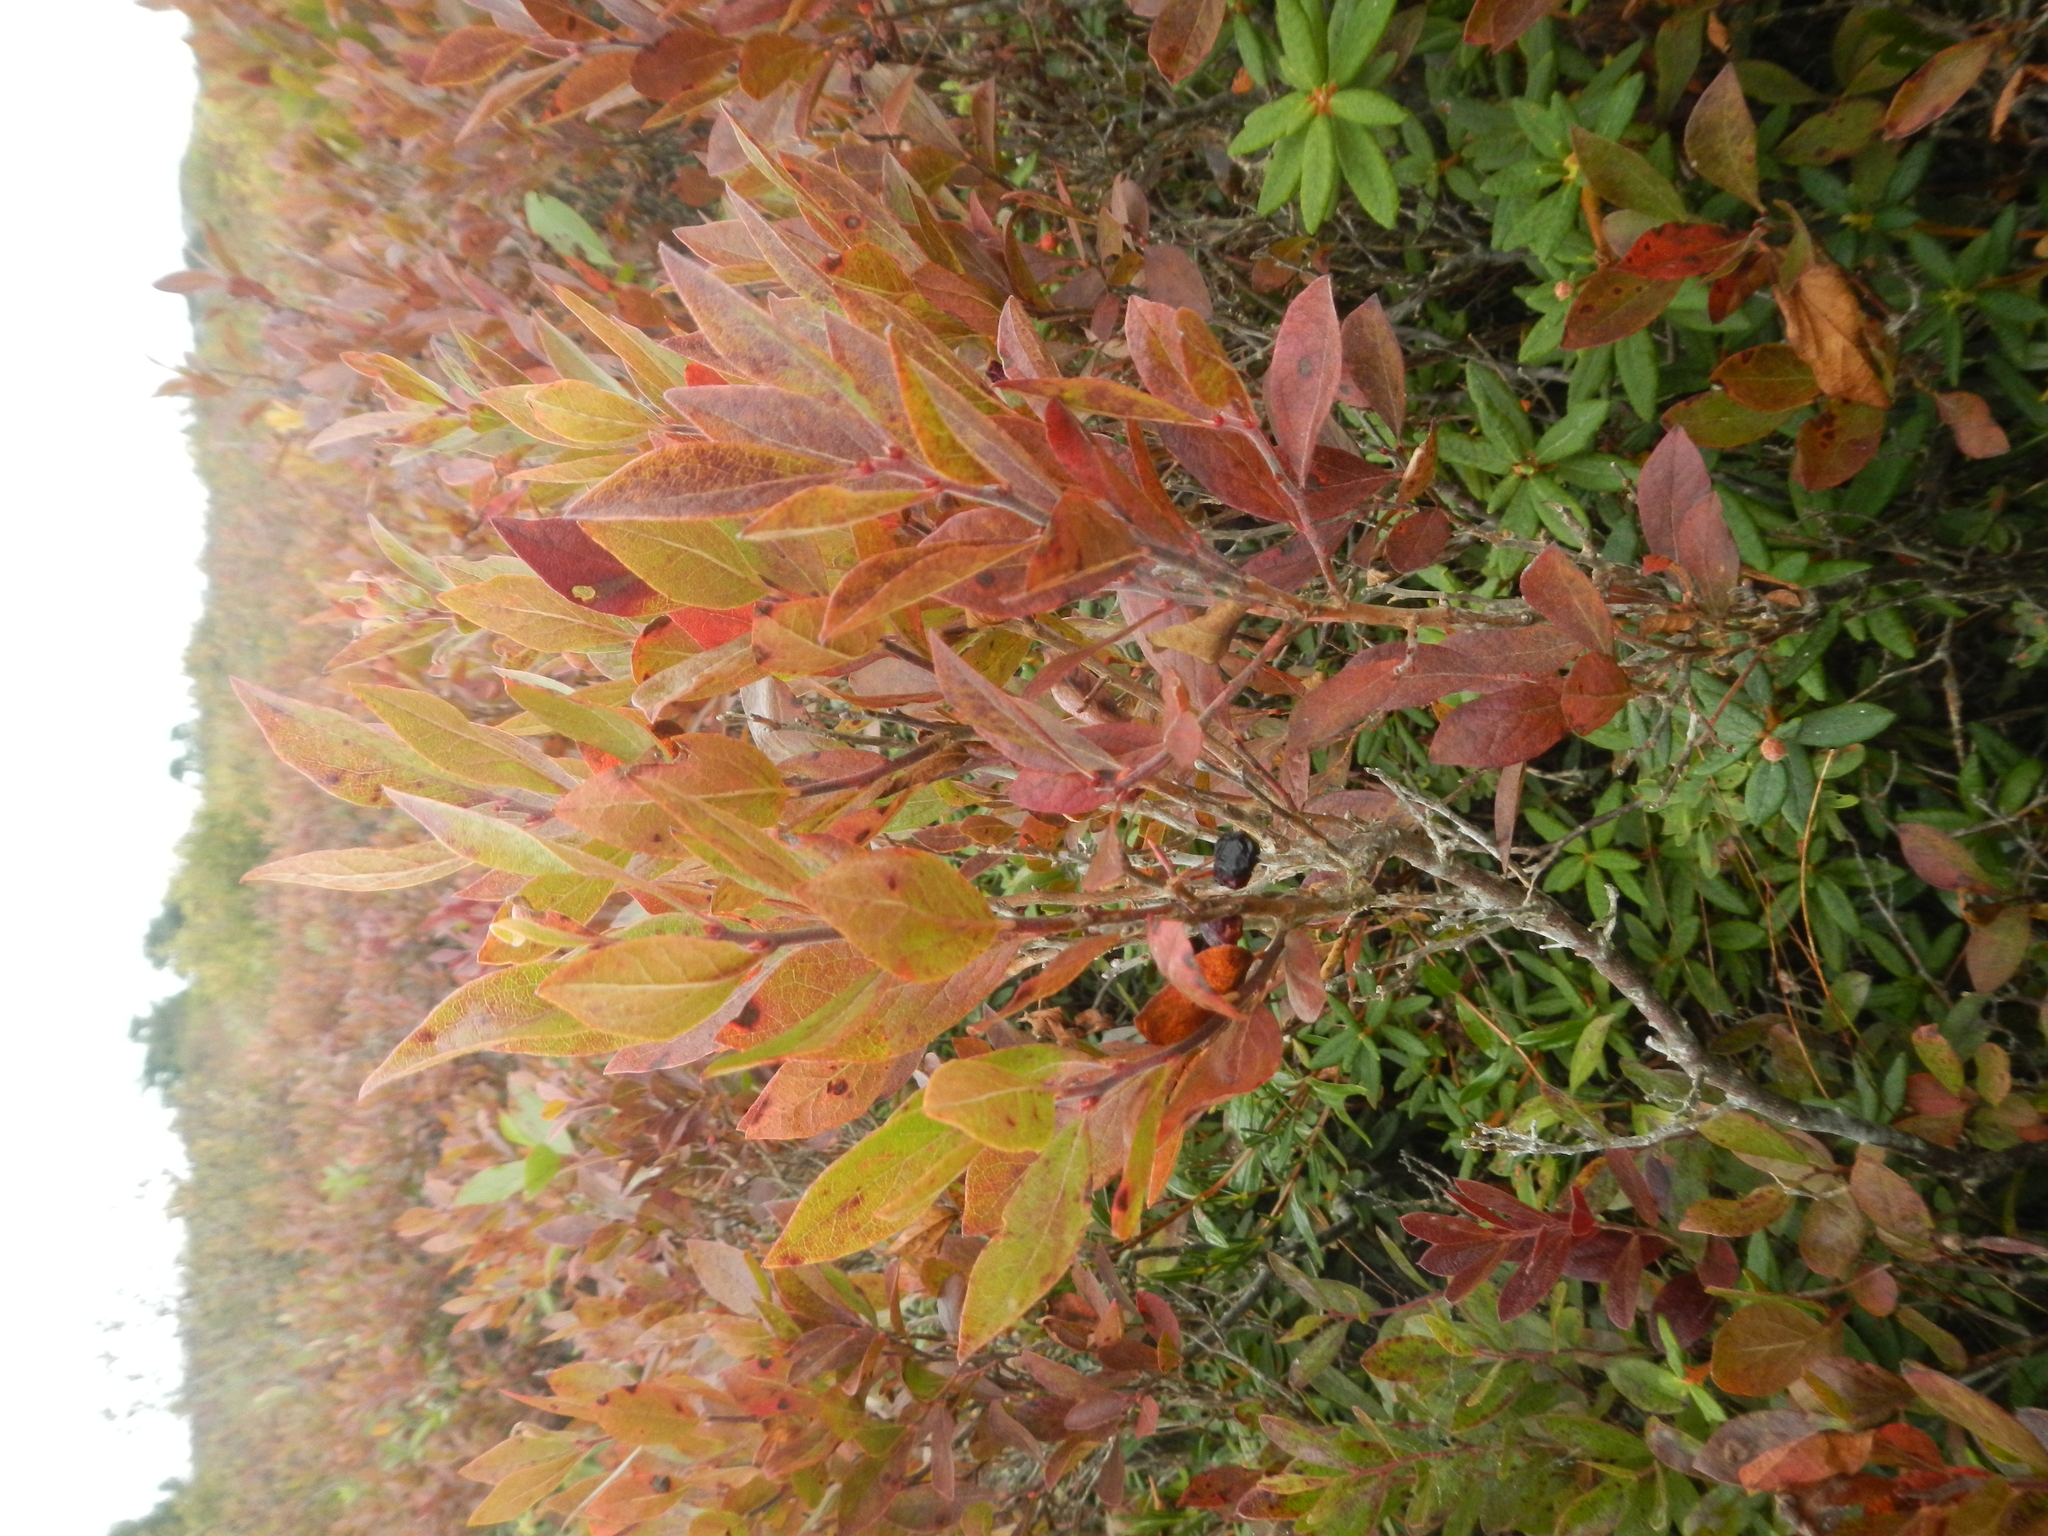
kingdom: Plantae
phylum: Tracheophyta
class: Magnoliopsida
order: Ericales
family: Ericaceae
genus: Gaylussacia
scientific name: Gaylussacia baccata
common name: Black huckleberry
